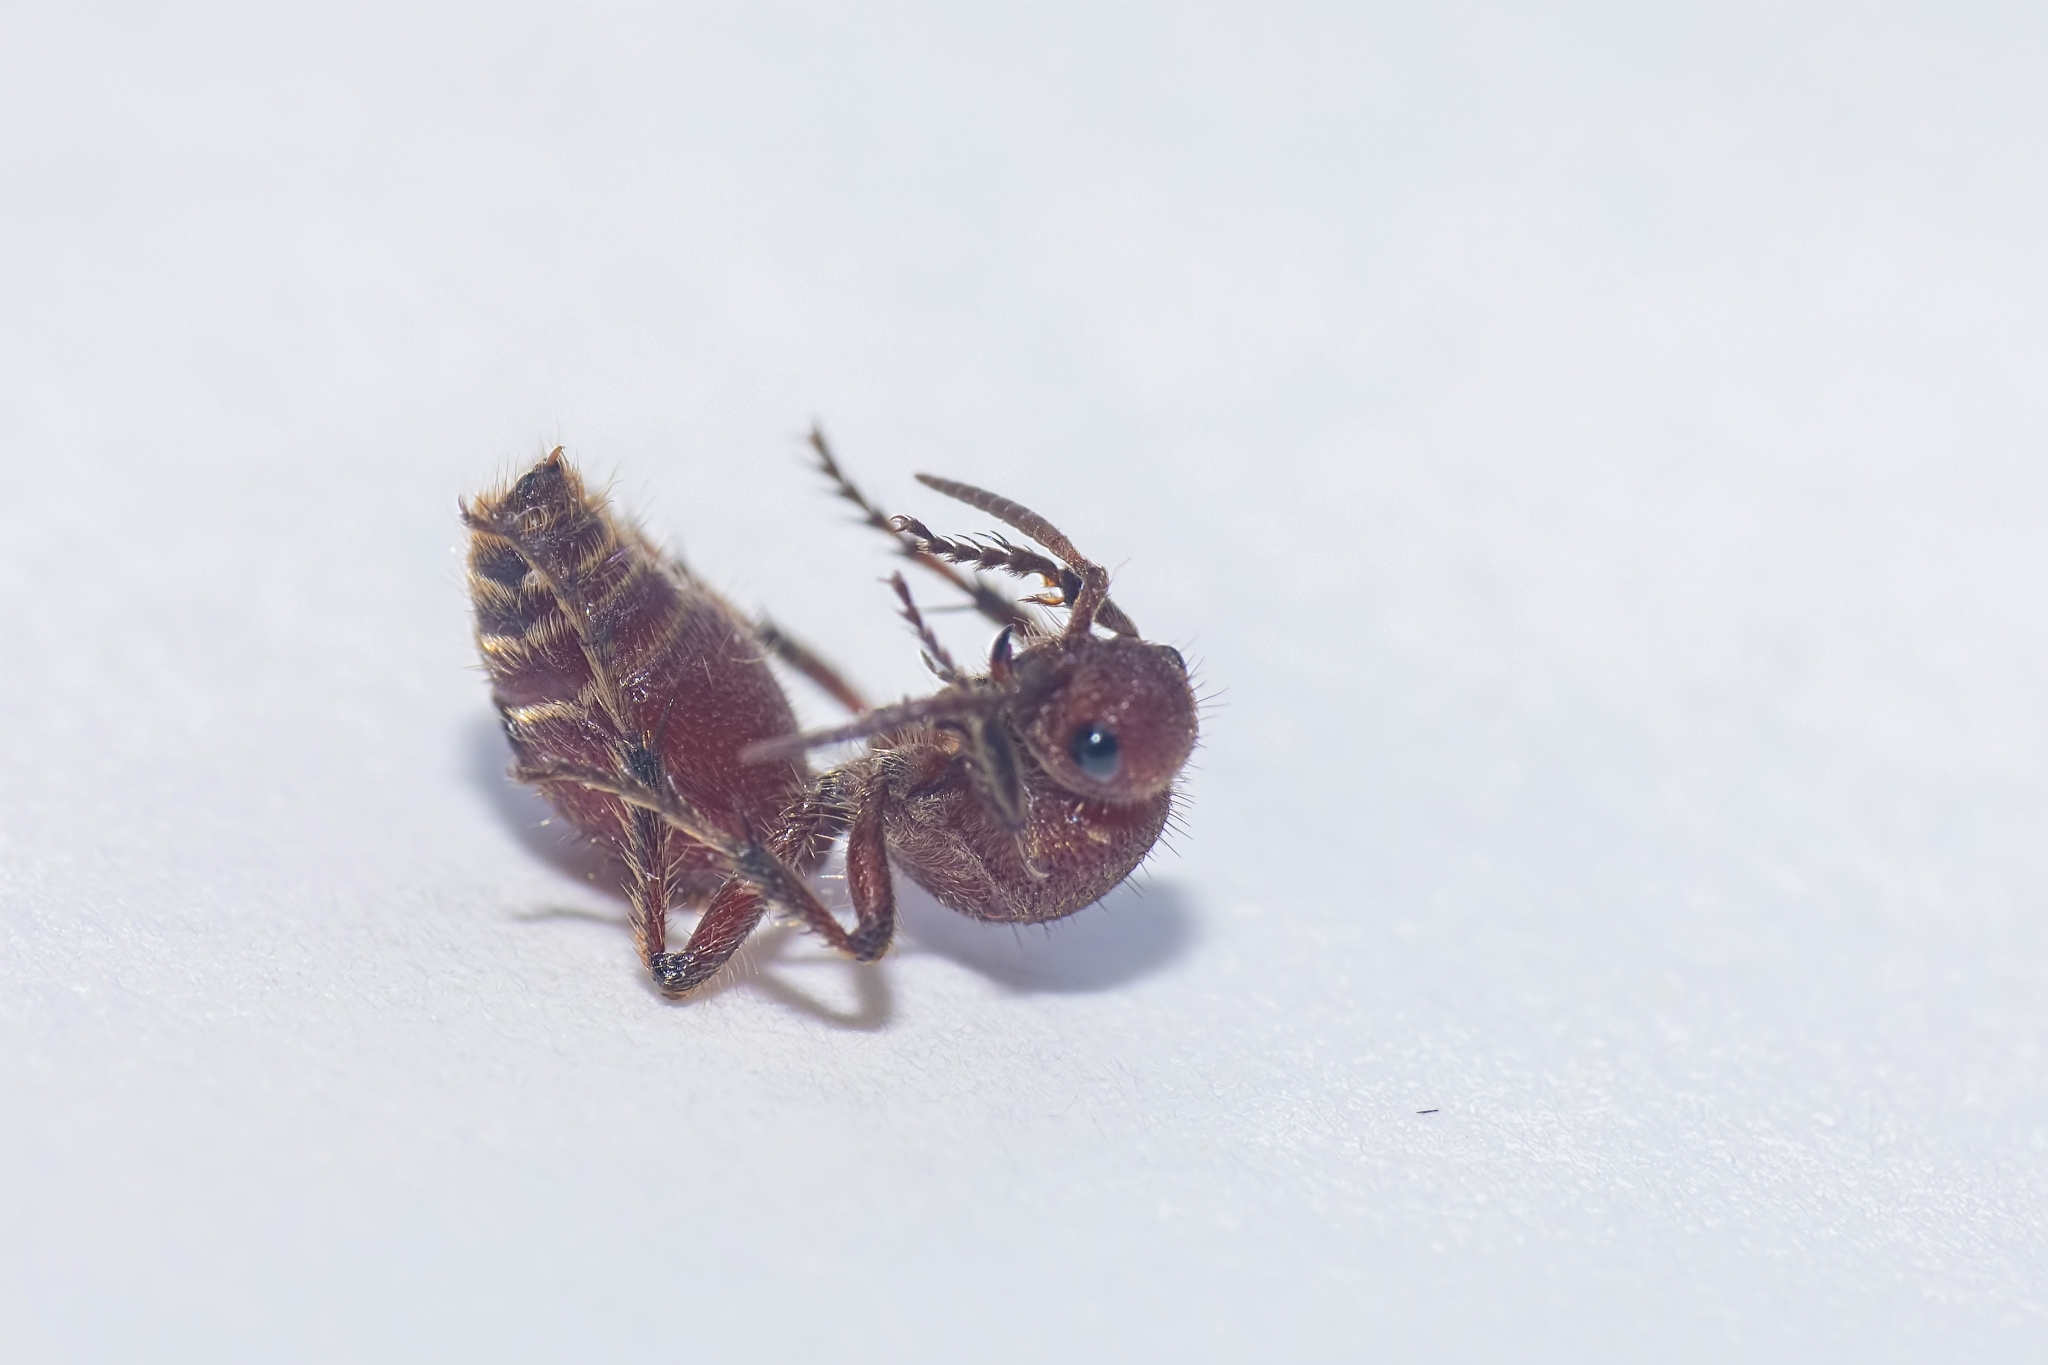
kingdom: Animalia
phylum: Arthropoda
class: Insecta
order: Hymenoptera
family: Mutillidae
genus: Dasymutilla
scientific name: Dasymutilla
